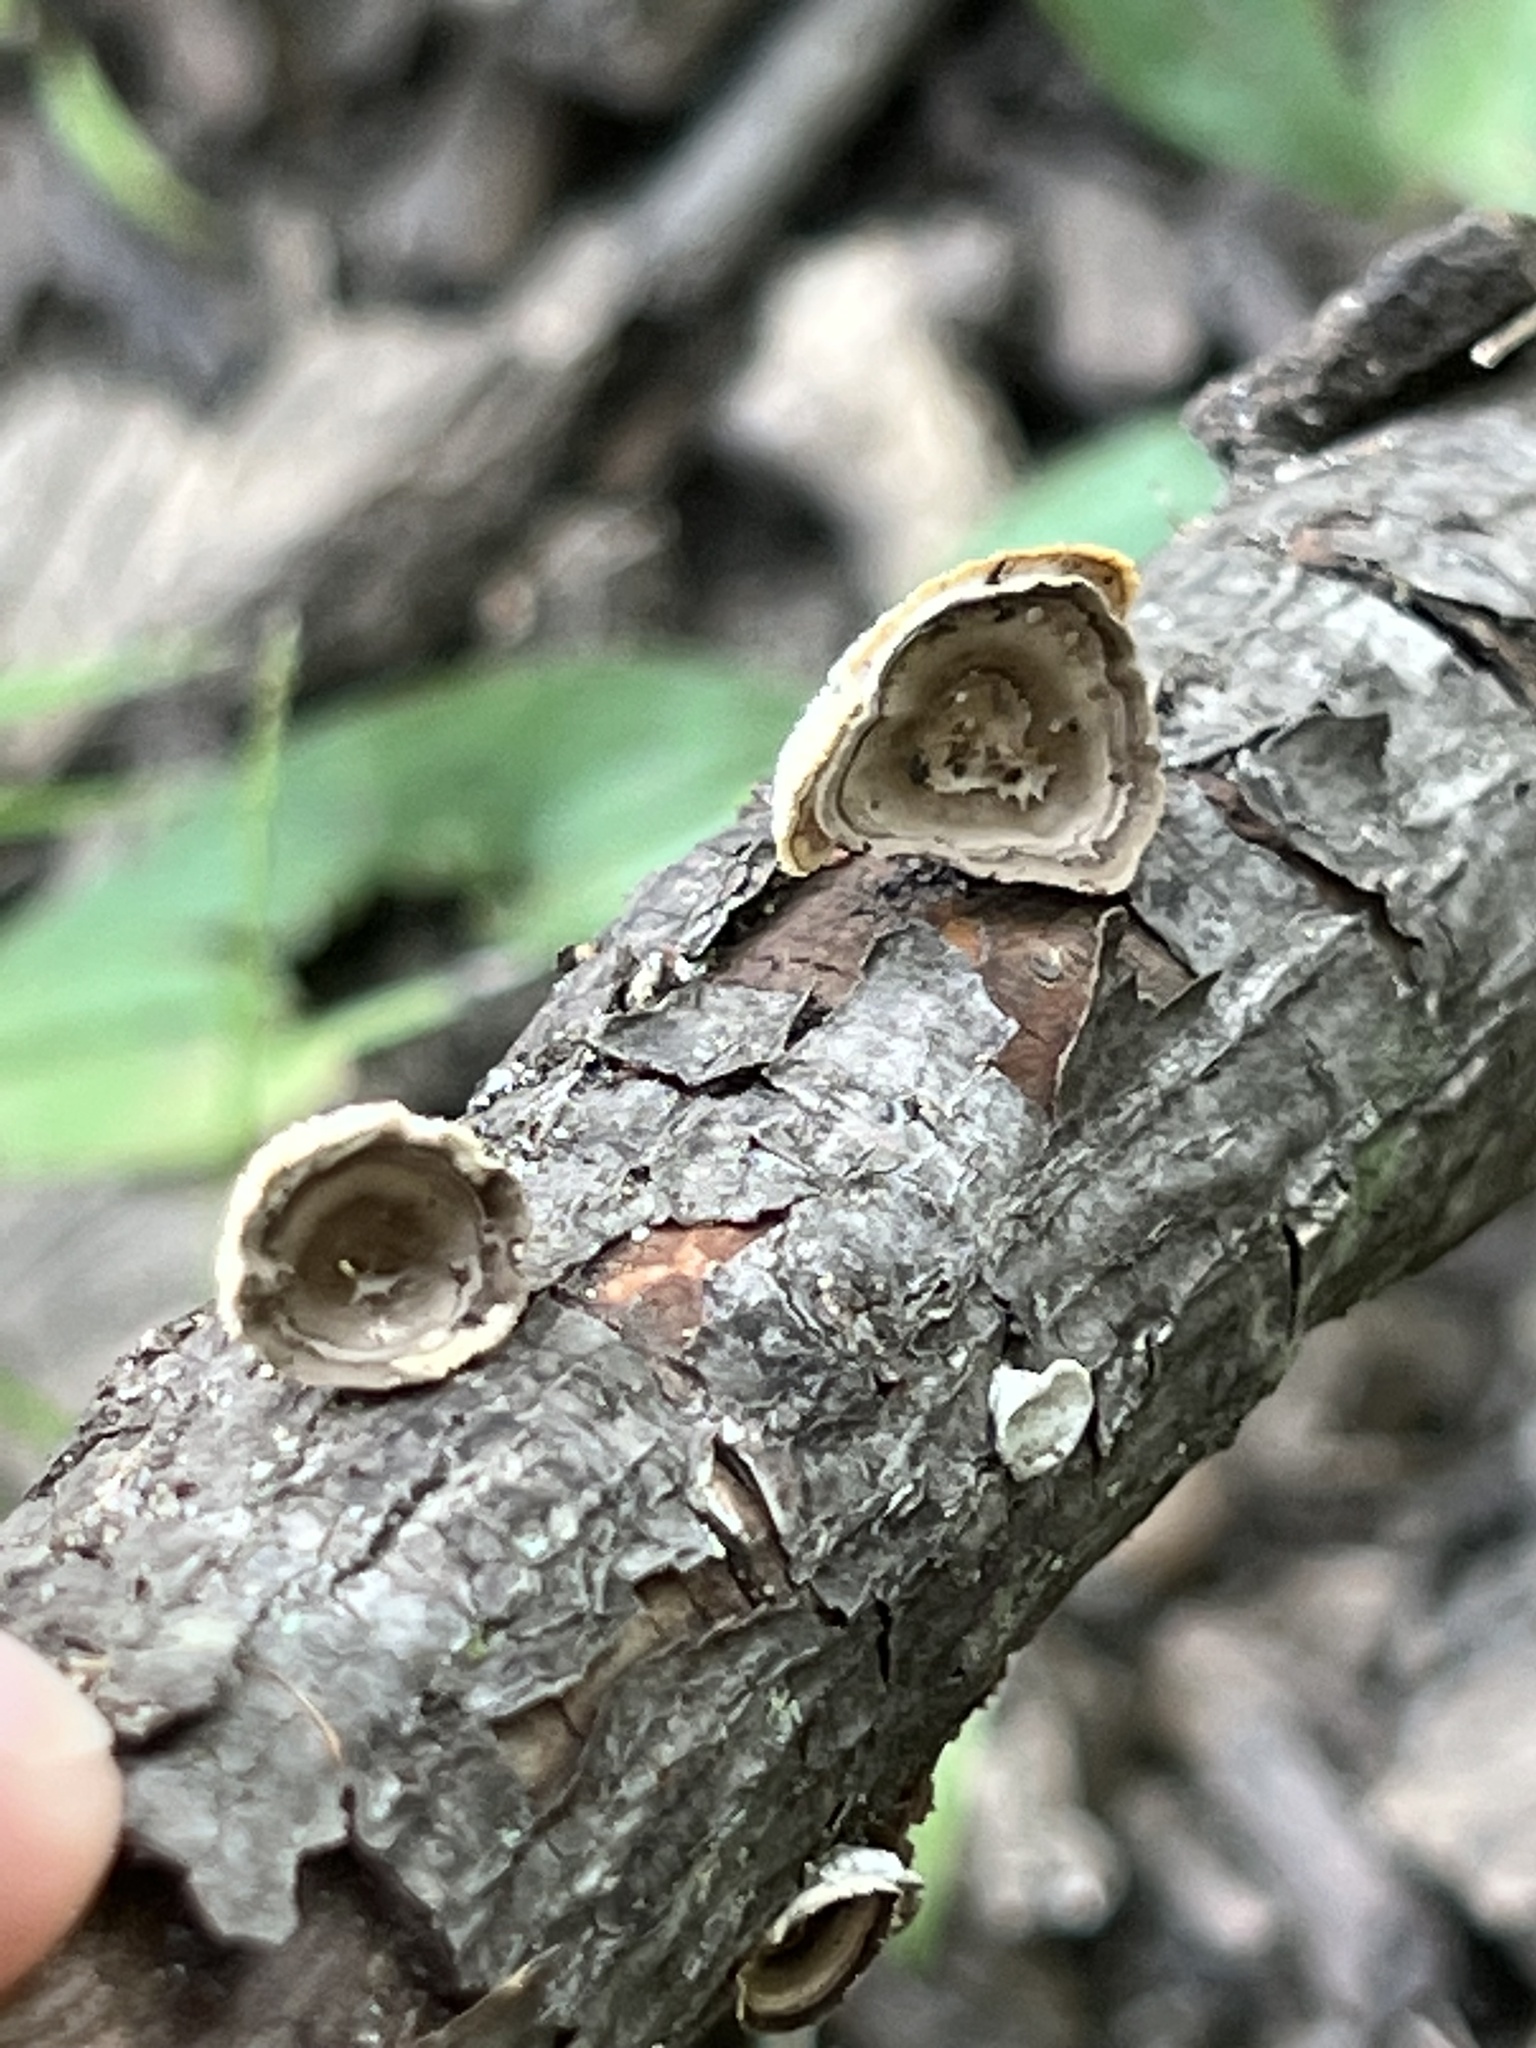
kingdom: Fungi
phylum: Basidiomycota
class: Agaricomycetes
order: Polyporales
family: Polyporaceae
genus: Poronidulus
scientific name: Poronidulus conchifer
